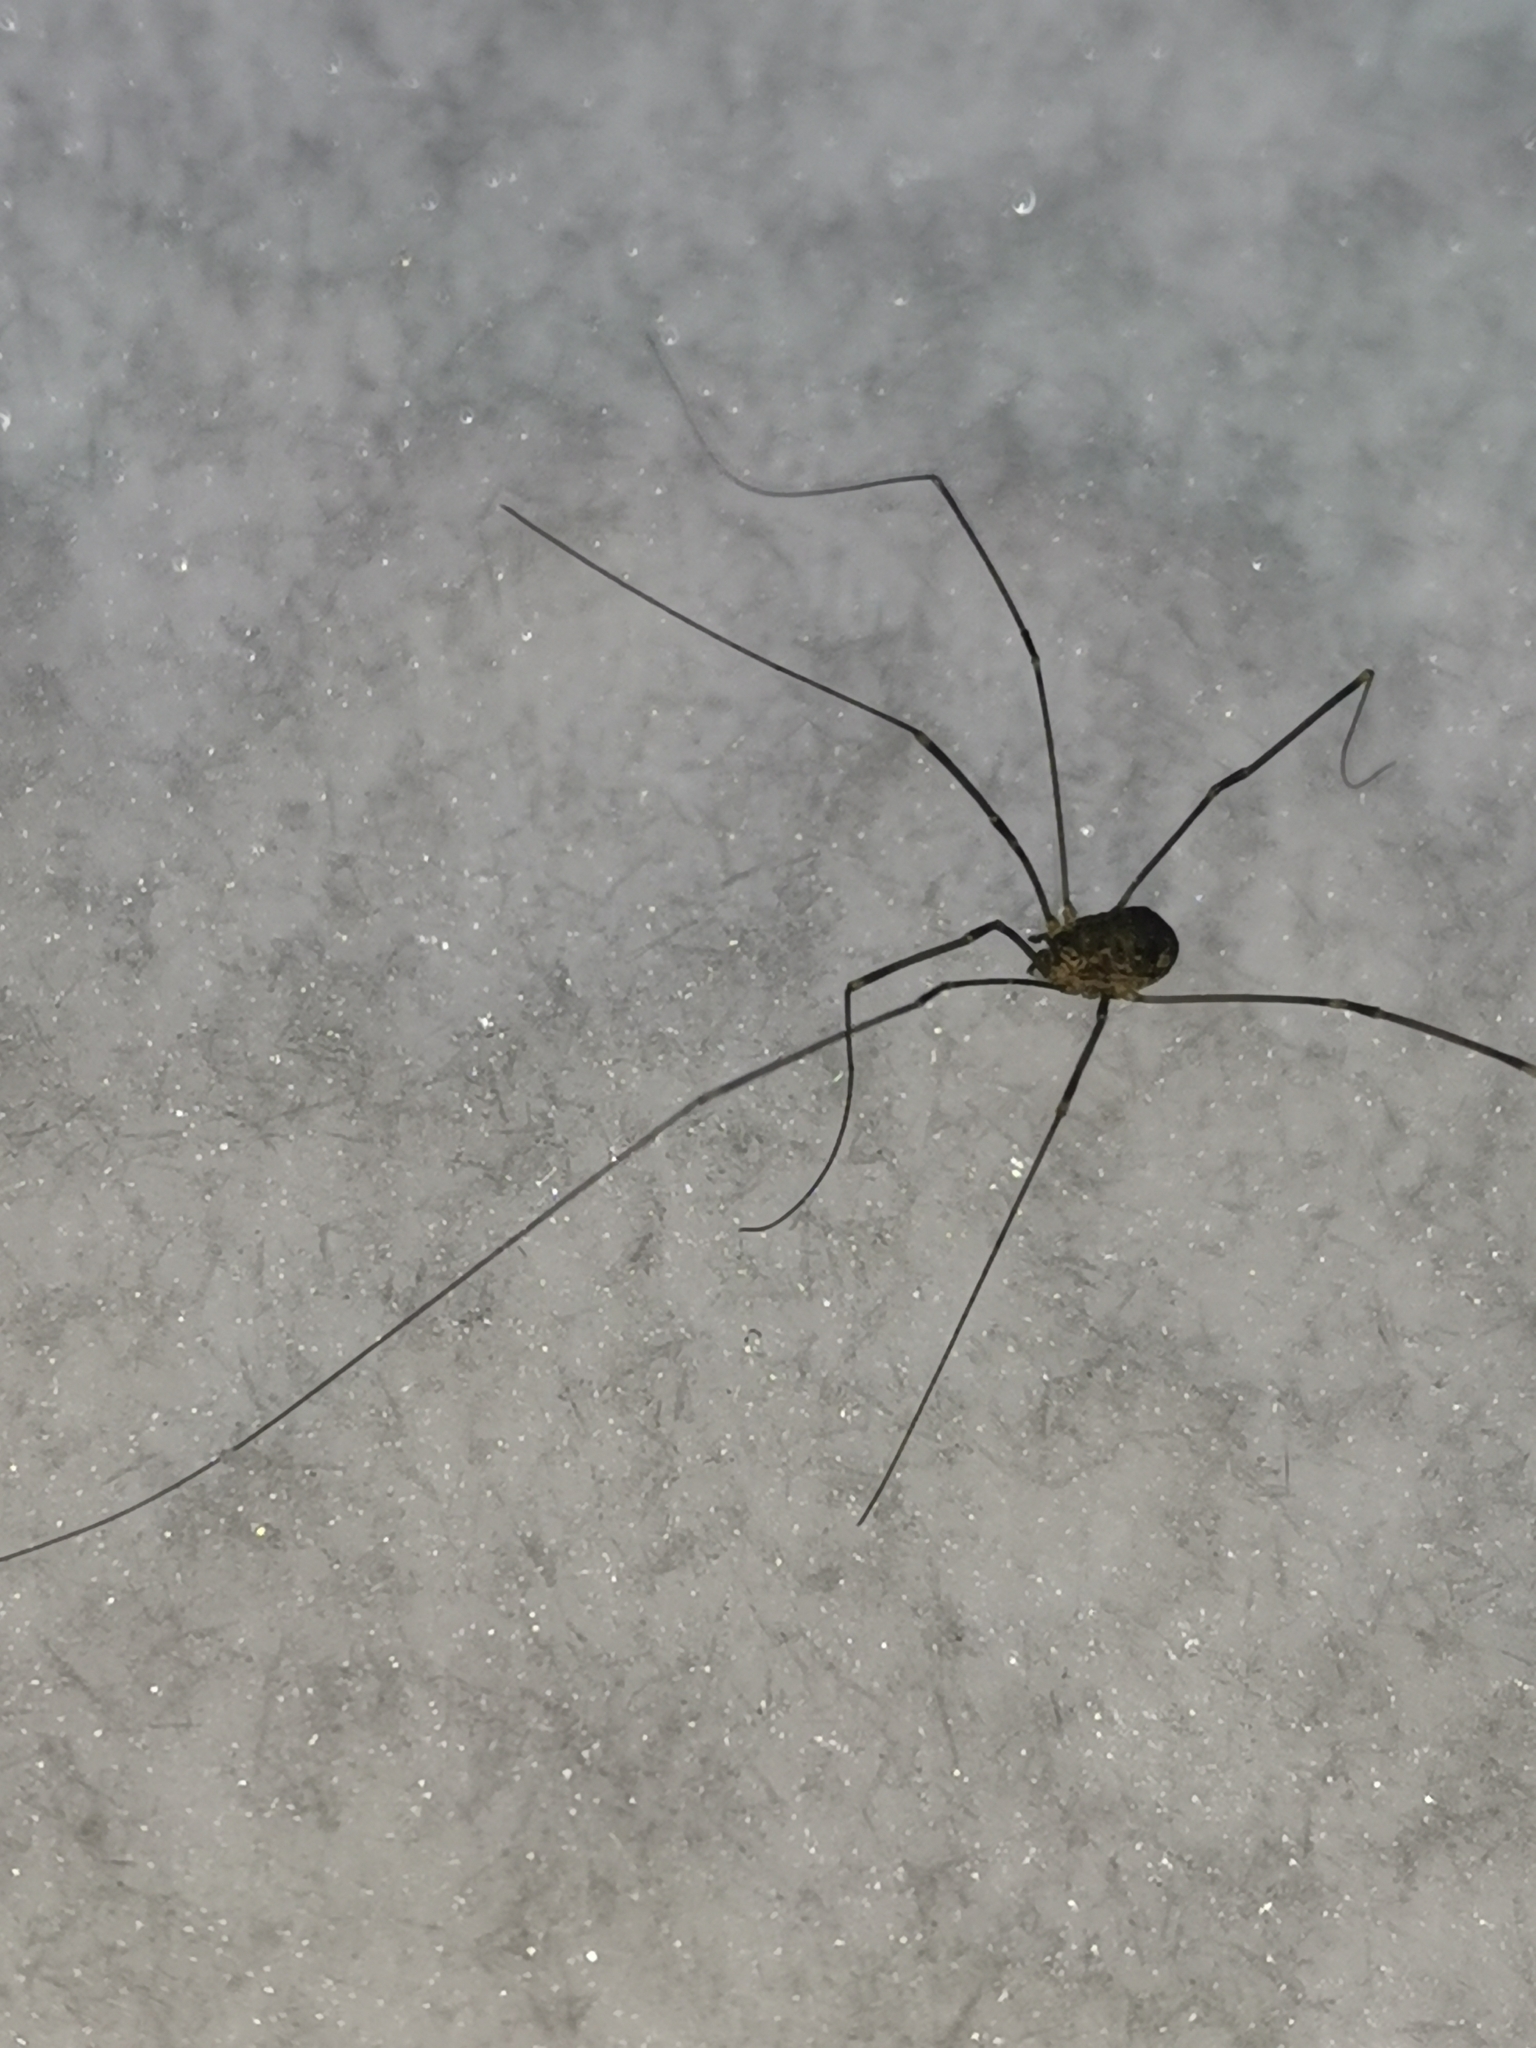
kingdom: Animalia
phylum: Arthropoda
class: Arachnida
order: Opiliones
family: Sclerosomatidae
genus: Leiobunum
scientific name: Leiobunum gracile
